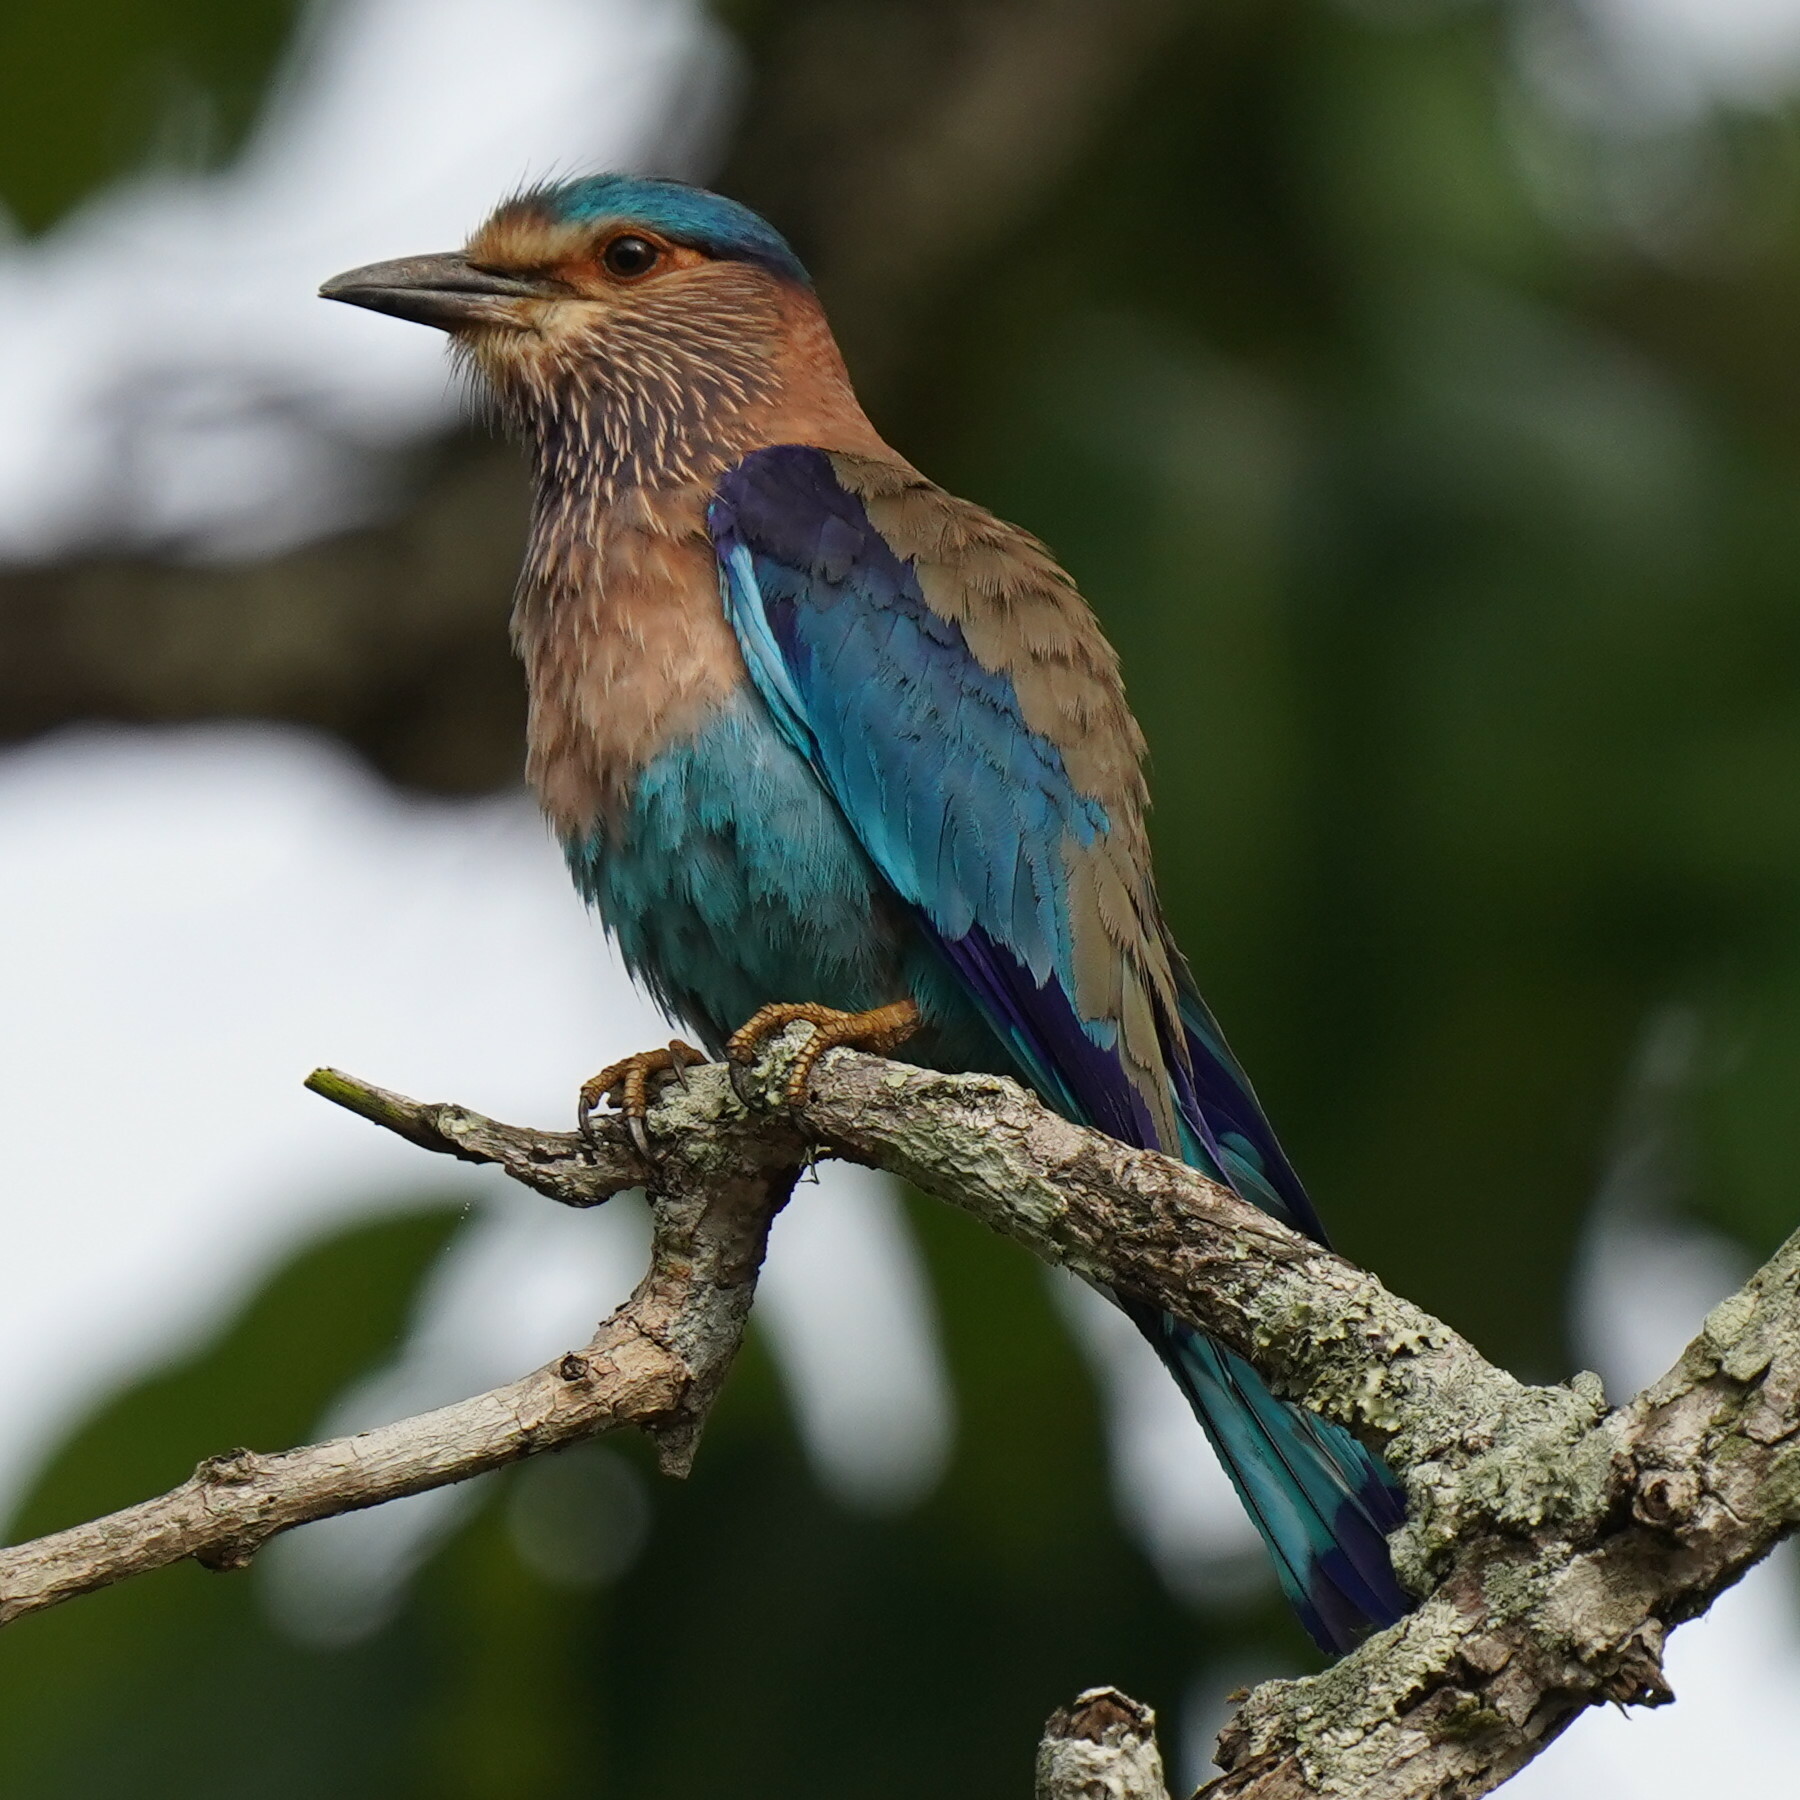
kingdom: Animalia
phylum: Chordata
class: Aves
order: Coraciiformes
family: Coraciidae
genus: Coracias
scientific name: Coracias benghalensis
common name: Indian roller
